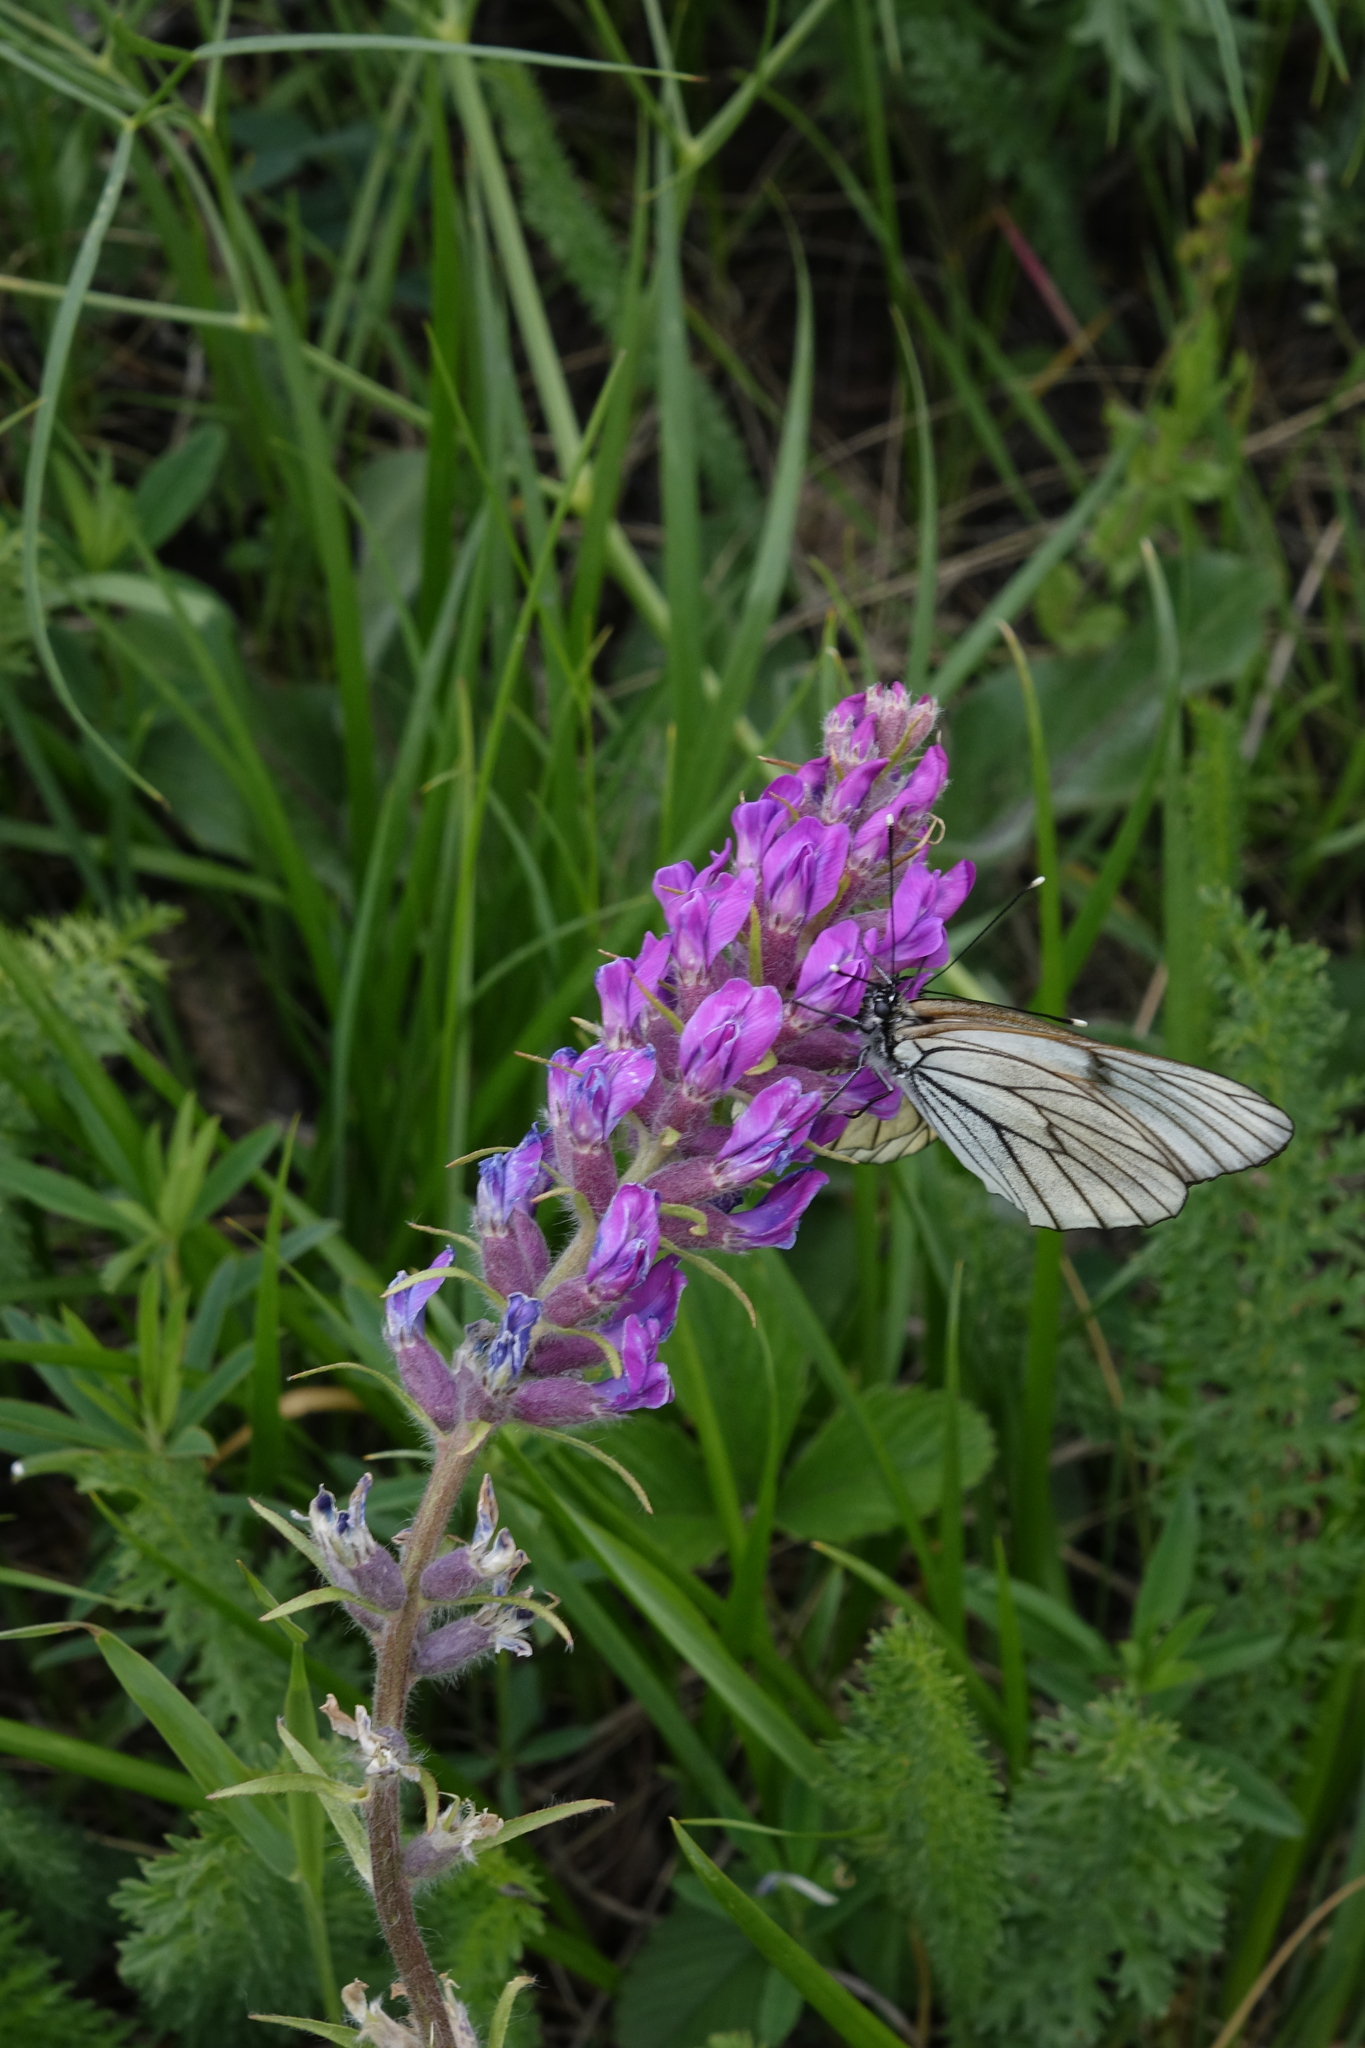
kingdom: Plantae
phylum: Tracheophyta
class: Magnoliopsida
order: Fabales
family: Fabaceae
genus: Oxytropis
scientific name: Oxytropis campanulata
